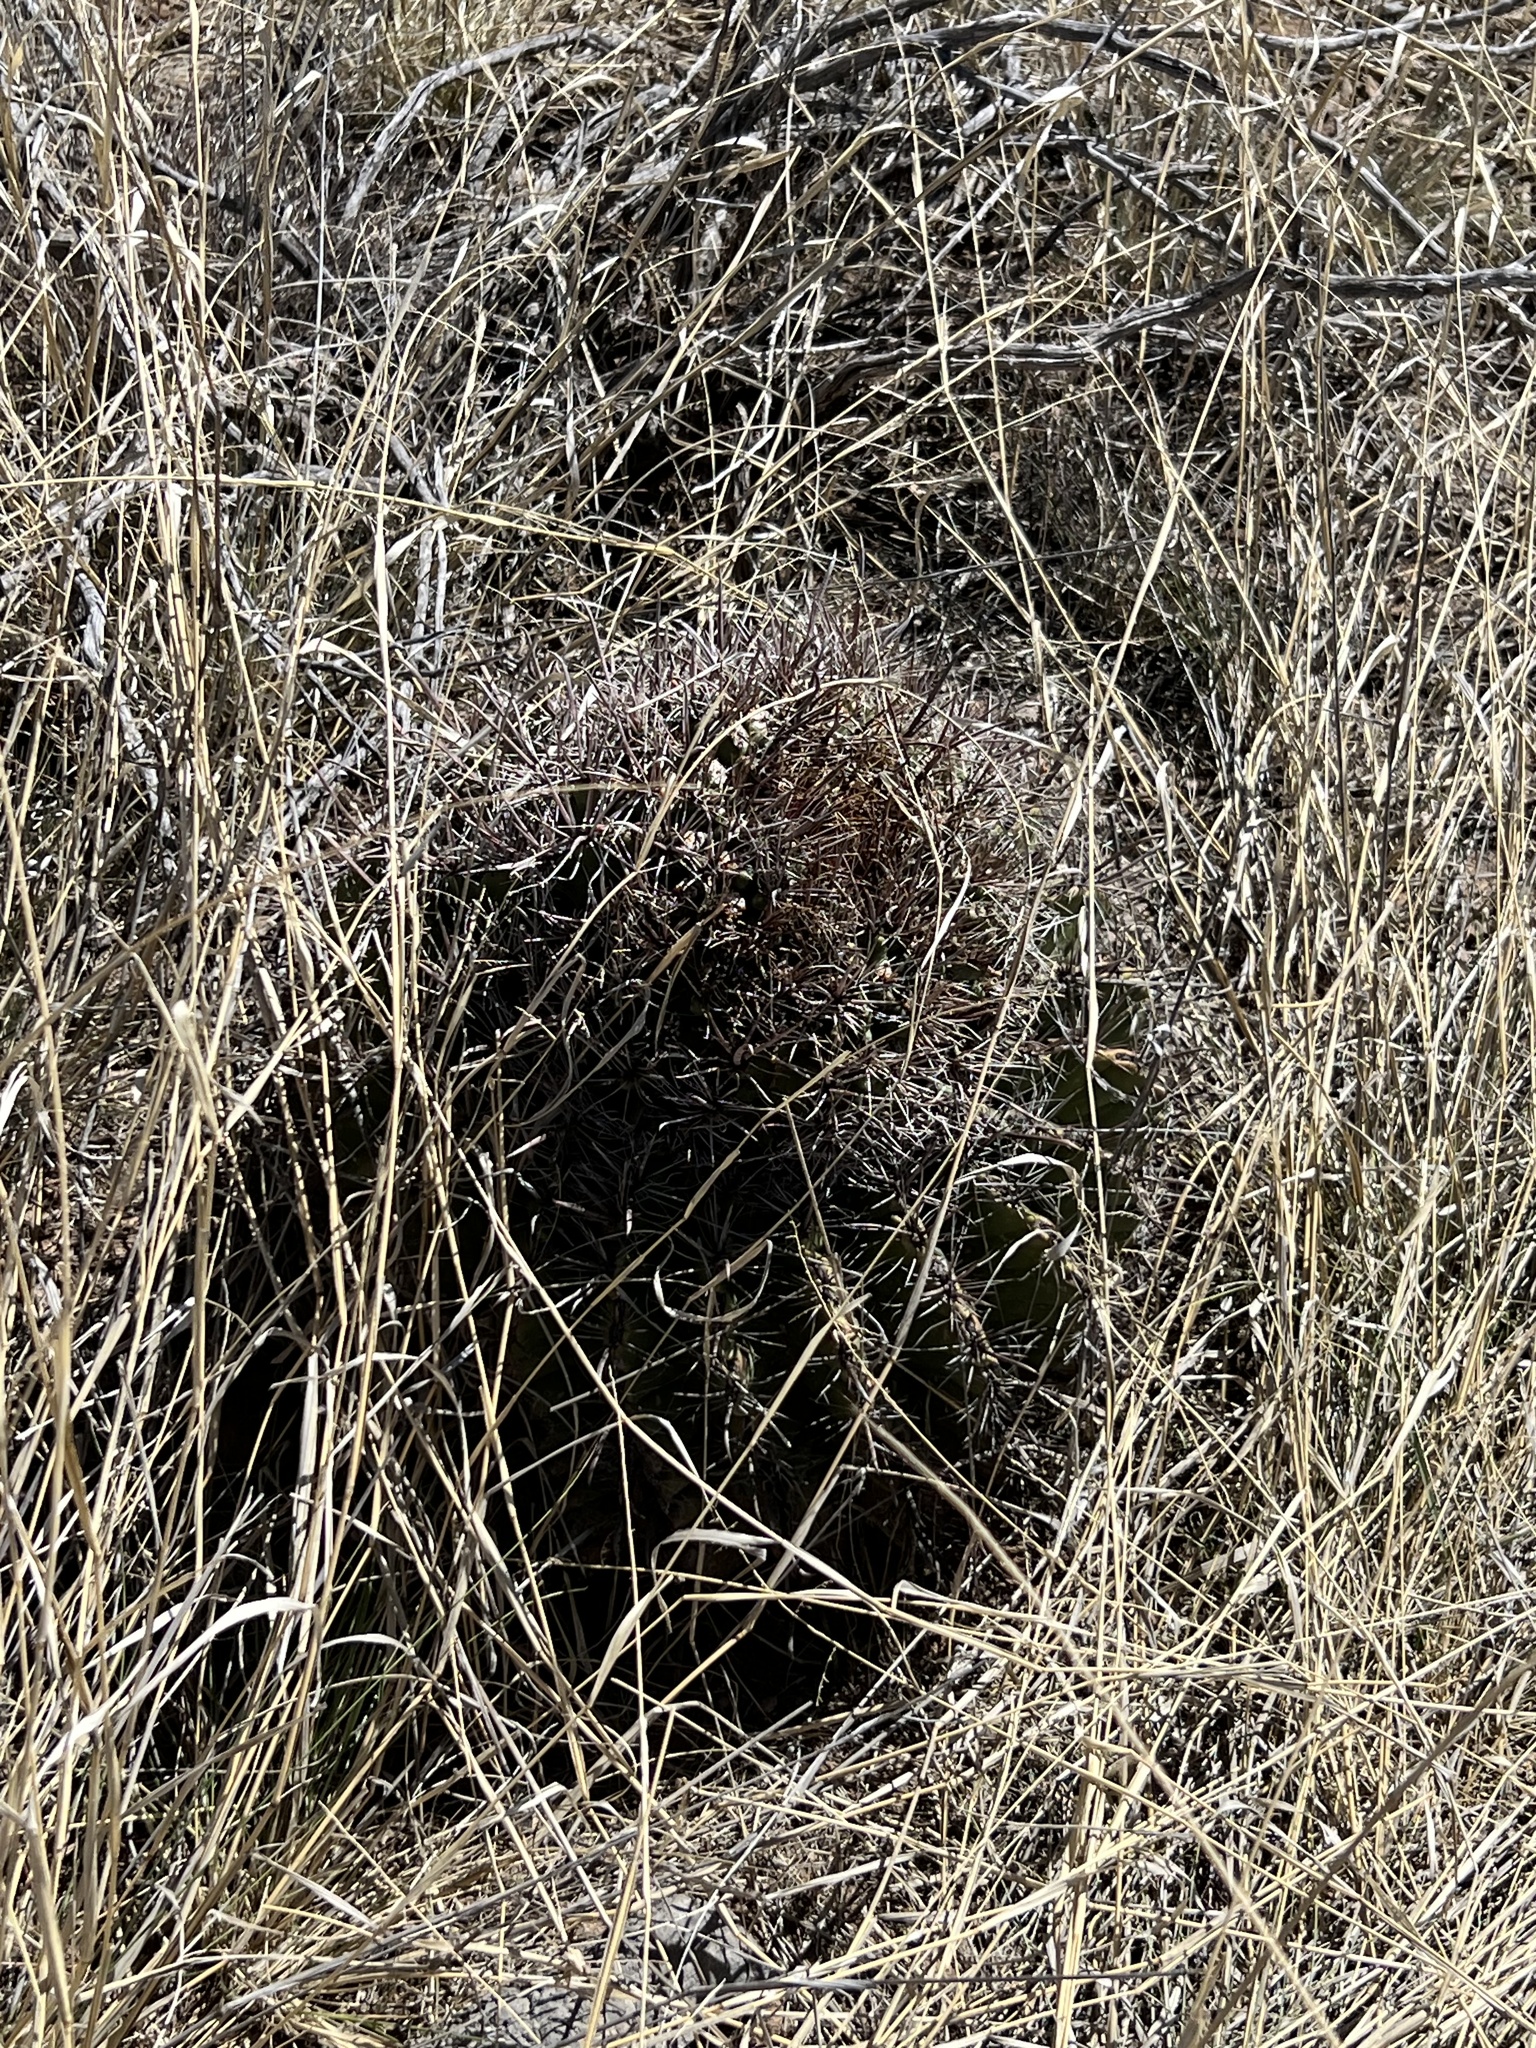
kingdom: Plantae
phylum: Tracheophyta
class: Magnoliopsida
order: Caryophyllales
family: Cactaceae
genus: Ferocactus
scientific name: Ferocactus wislizeni
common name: Candy barrel cactus
